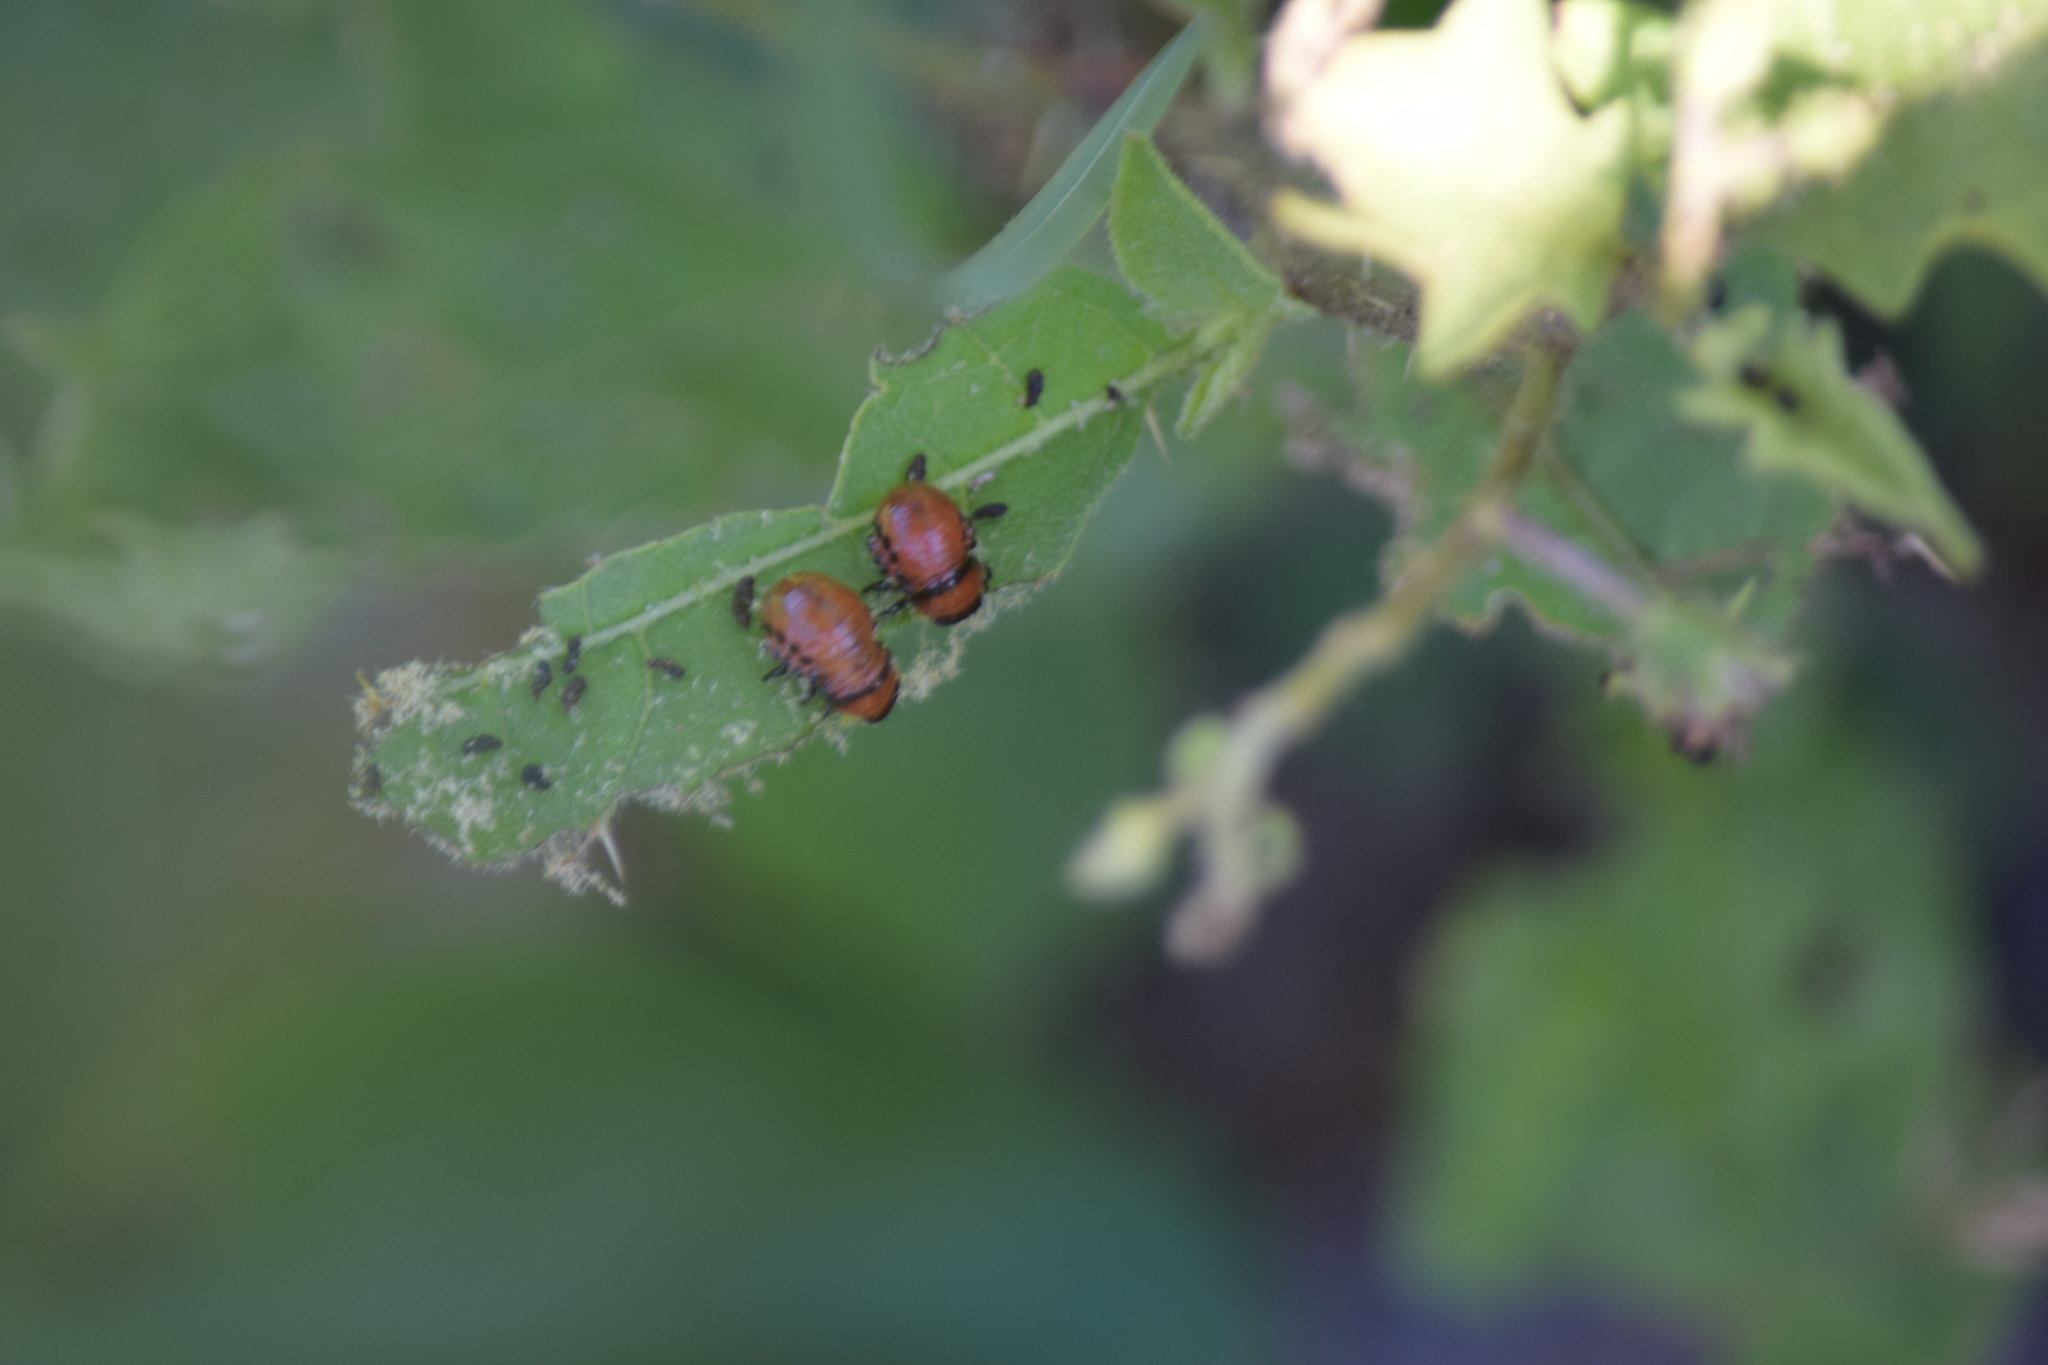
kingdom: Animalia
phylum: Arthropoda
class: Insecta
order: Coleoptera
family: Chrysomelidae
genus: Leptinotarsa
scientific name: Leptinotarsa decemlineata
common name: Colorado potato beetle
